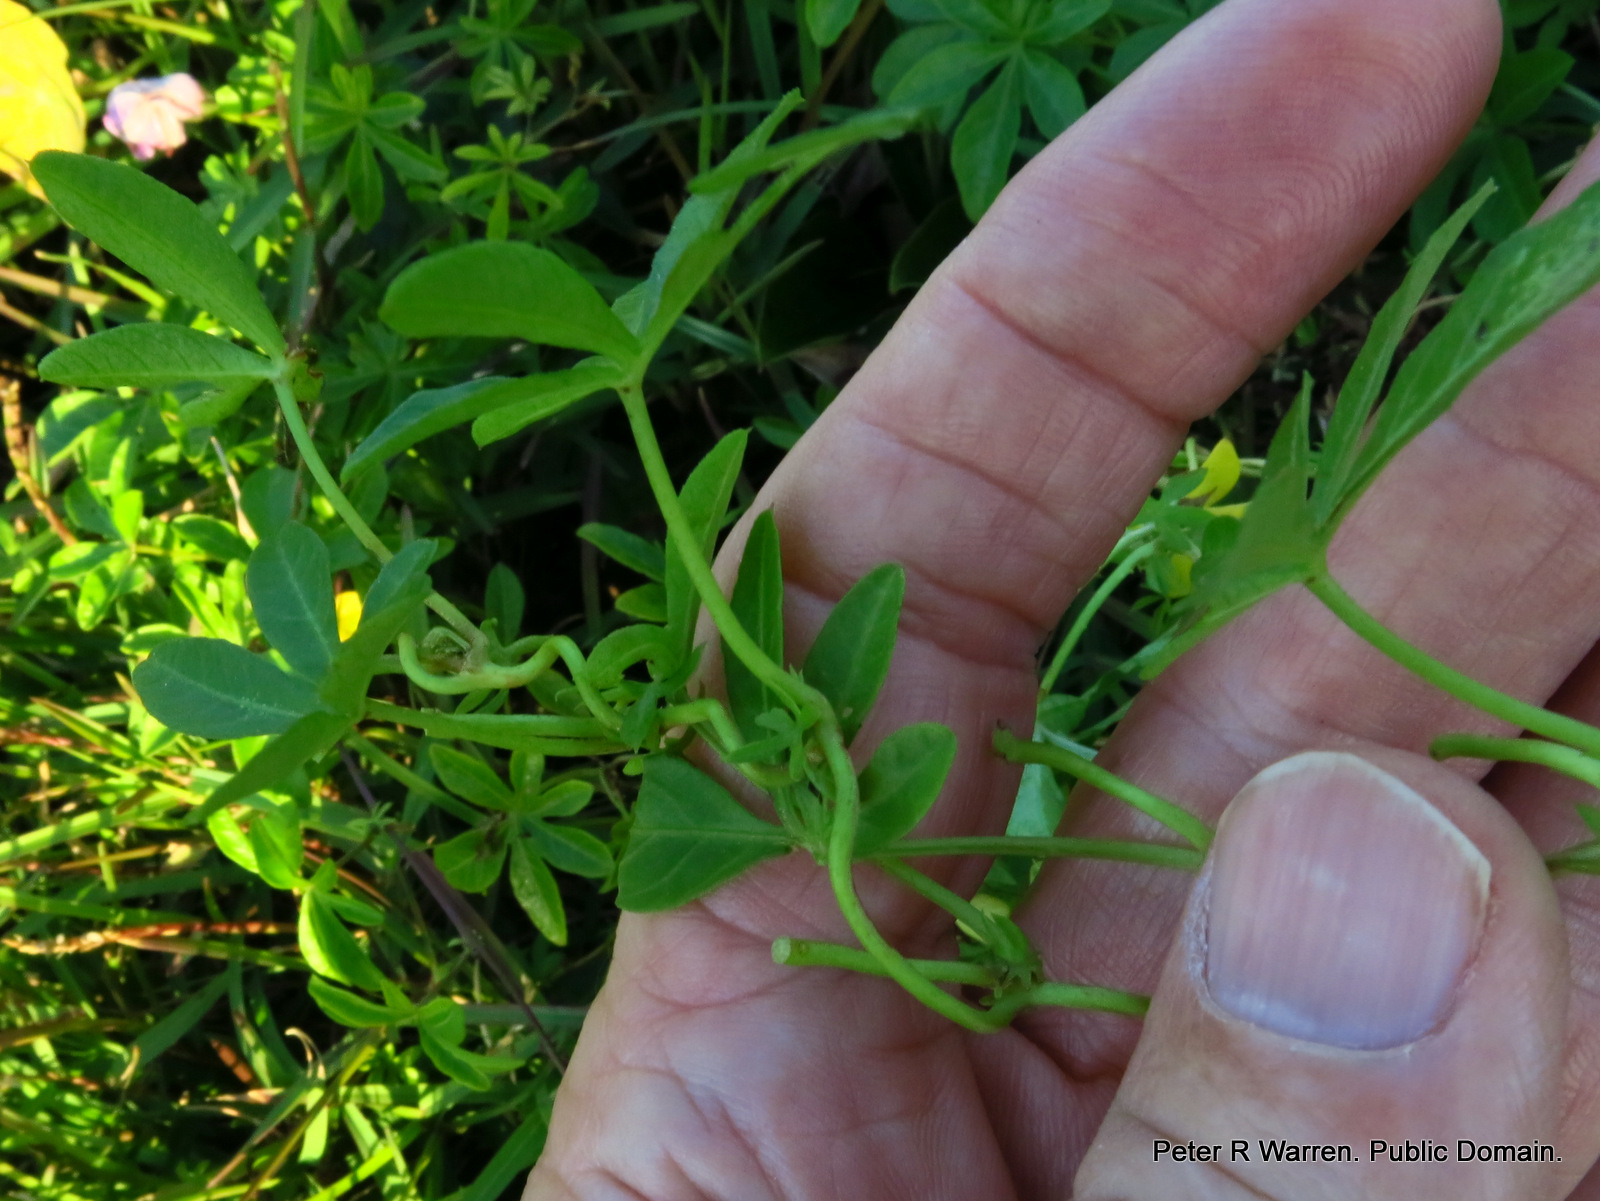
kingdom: Plantae
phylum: Tracheophyta
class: Magnoliopsida
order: Solanales
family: Convolvulaceae
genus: Ipomoea
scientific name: Ipomoea cairica
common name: Mile a minute vine
